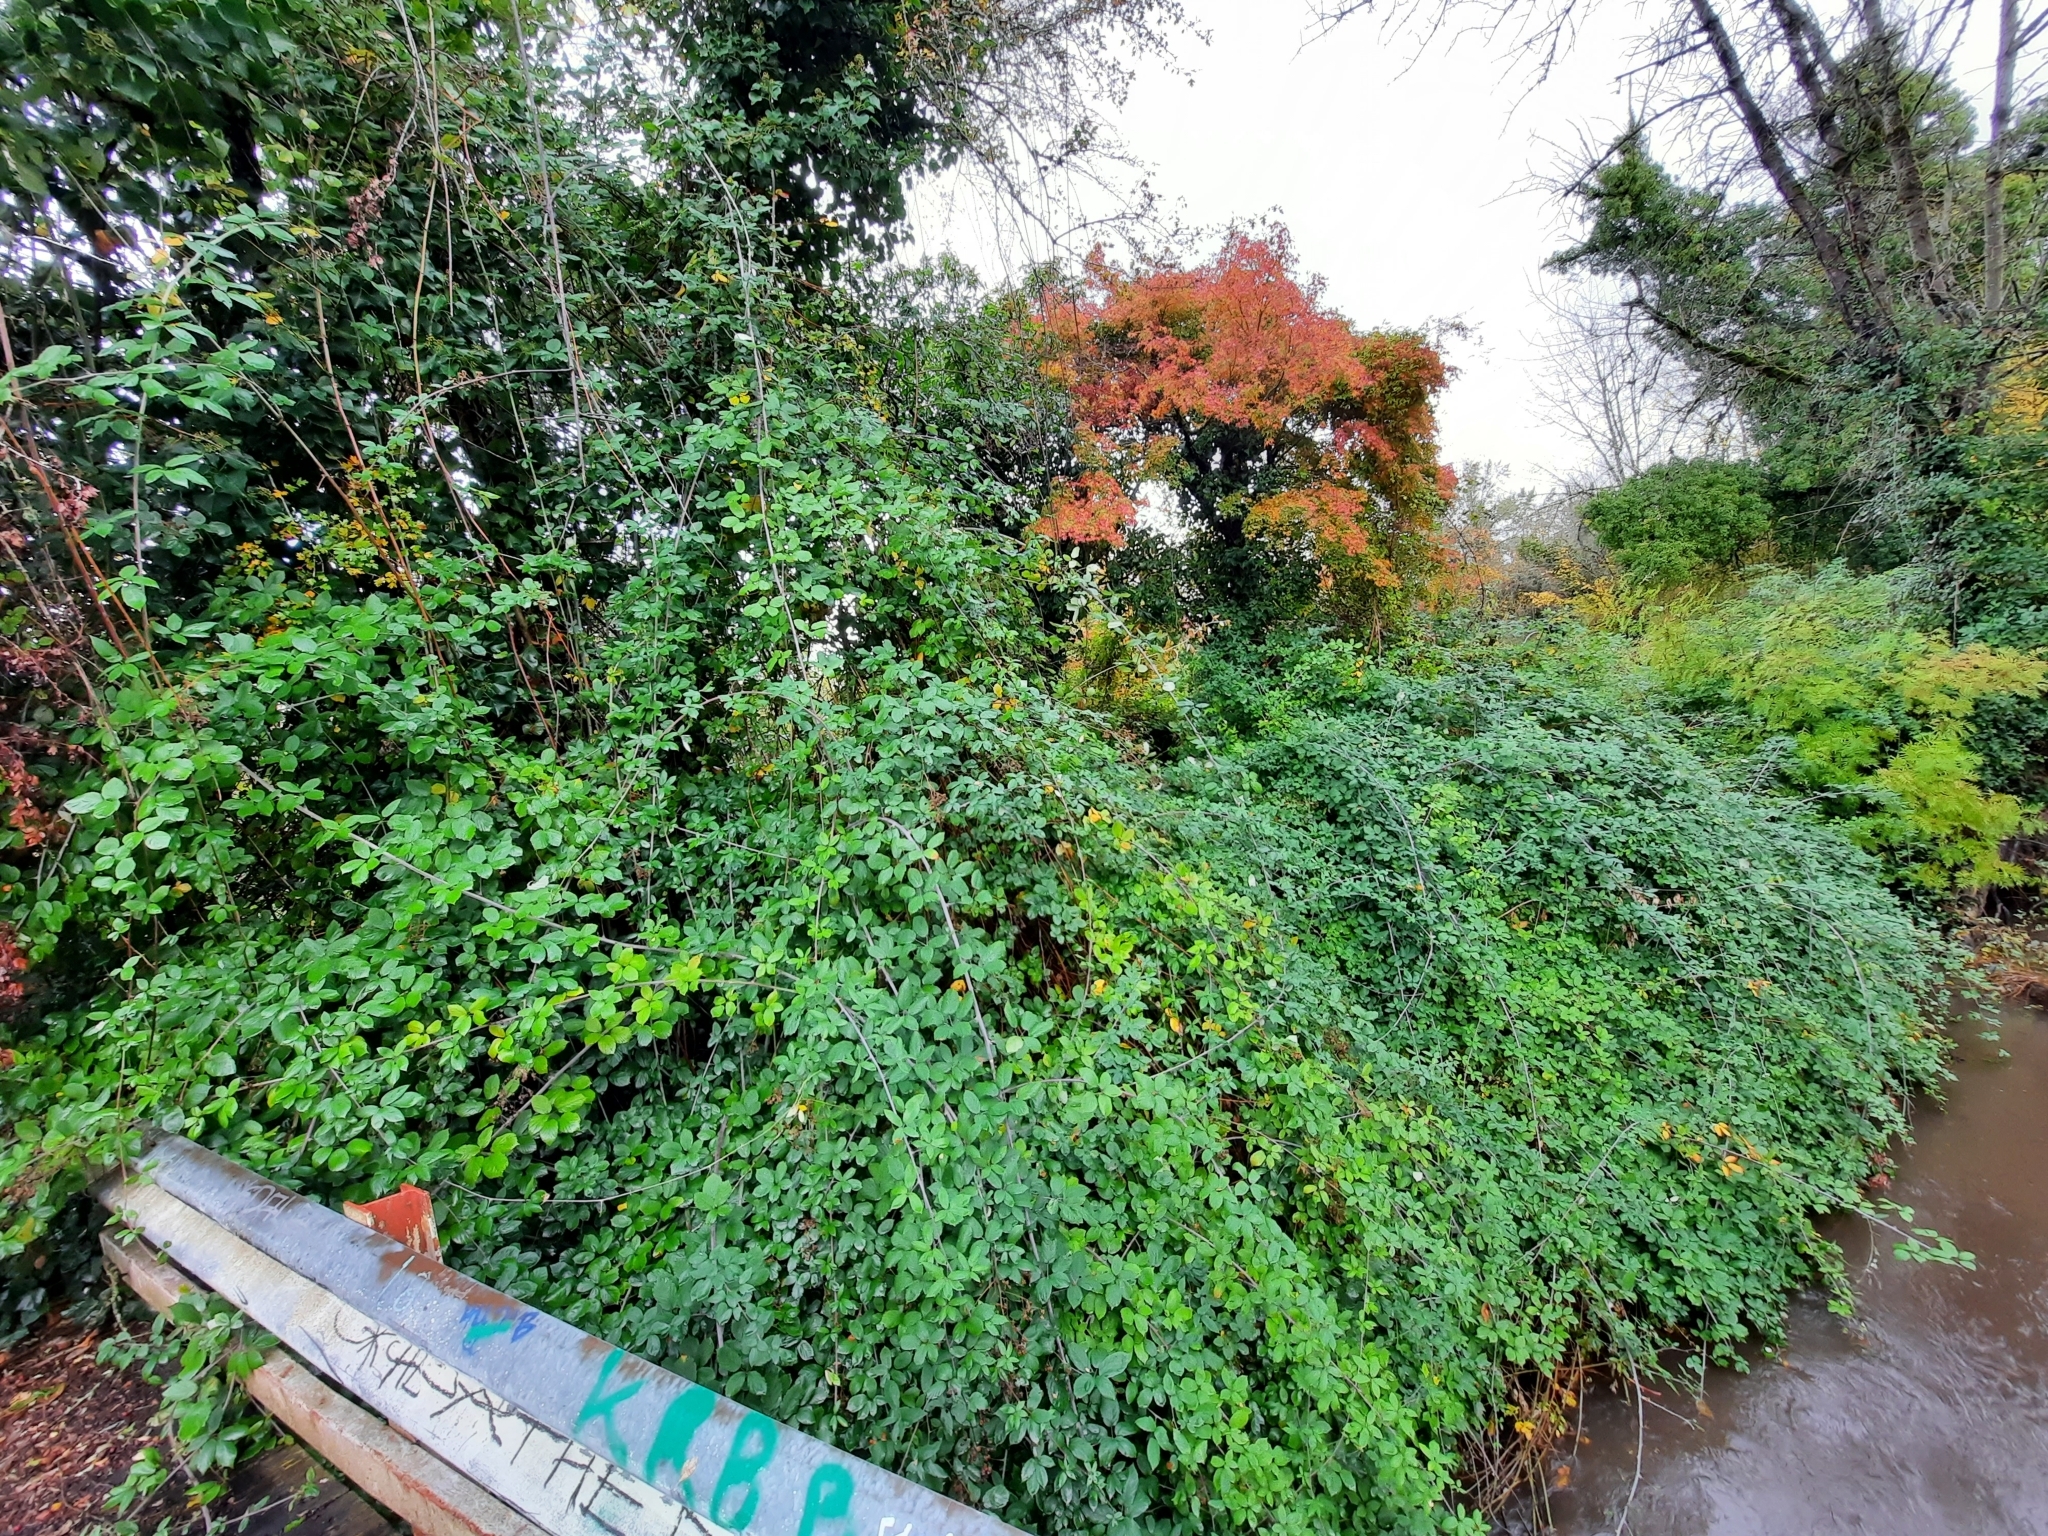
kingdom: Plantae
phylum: Tracheophyta
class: Magnoliopsida
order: Rosales
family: Rosaceae
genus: Rubus
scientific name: Rubus bifrons
